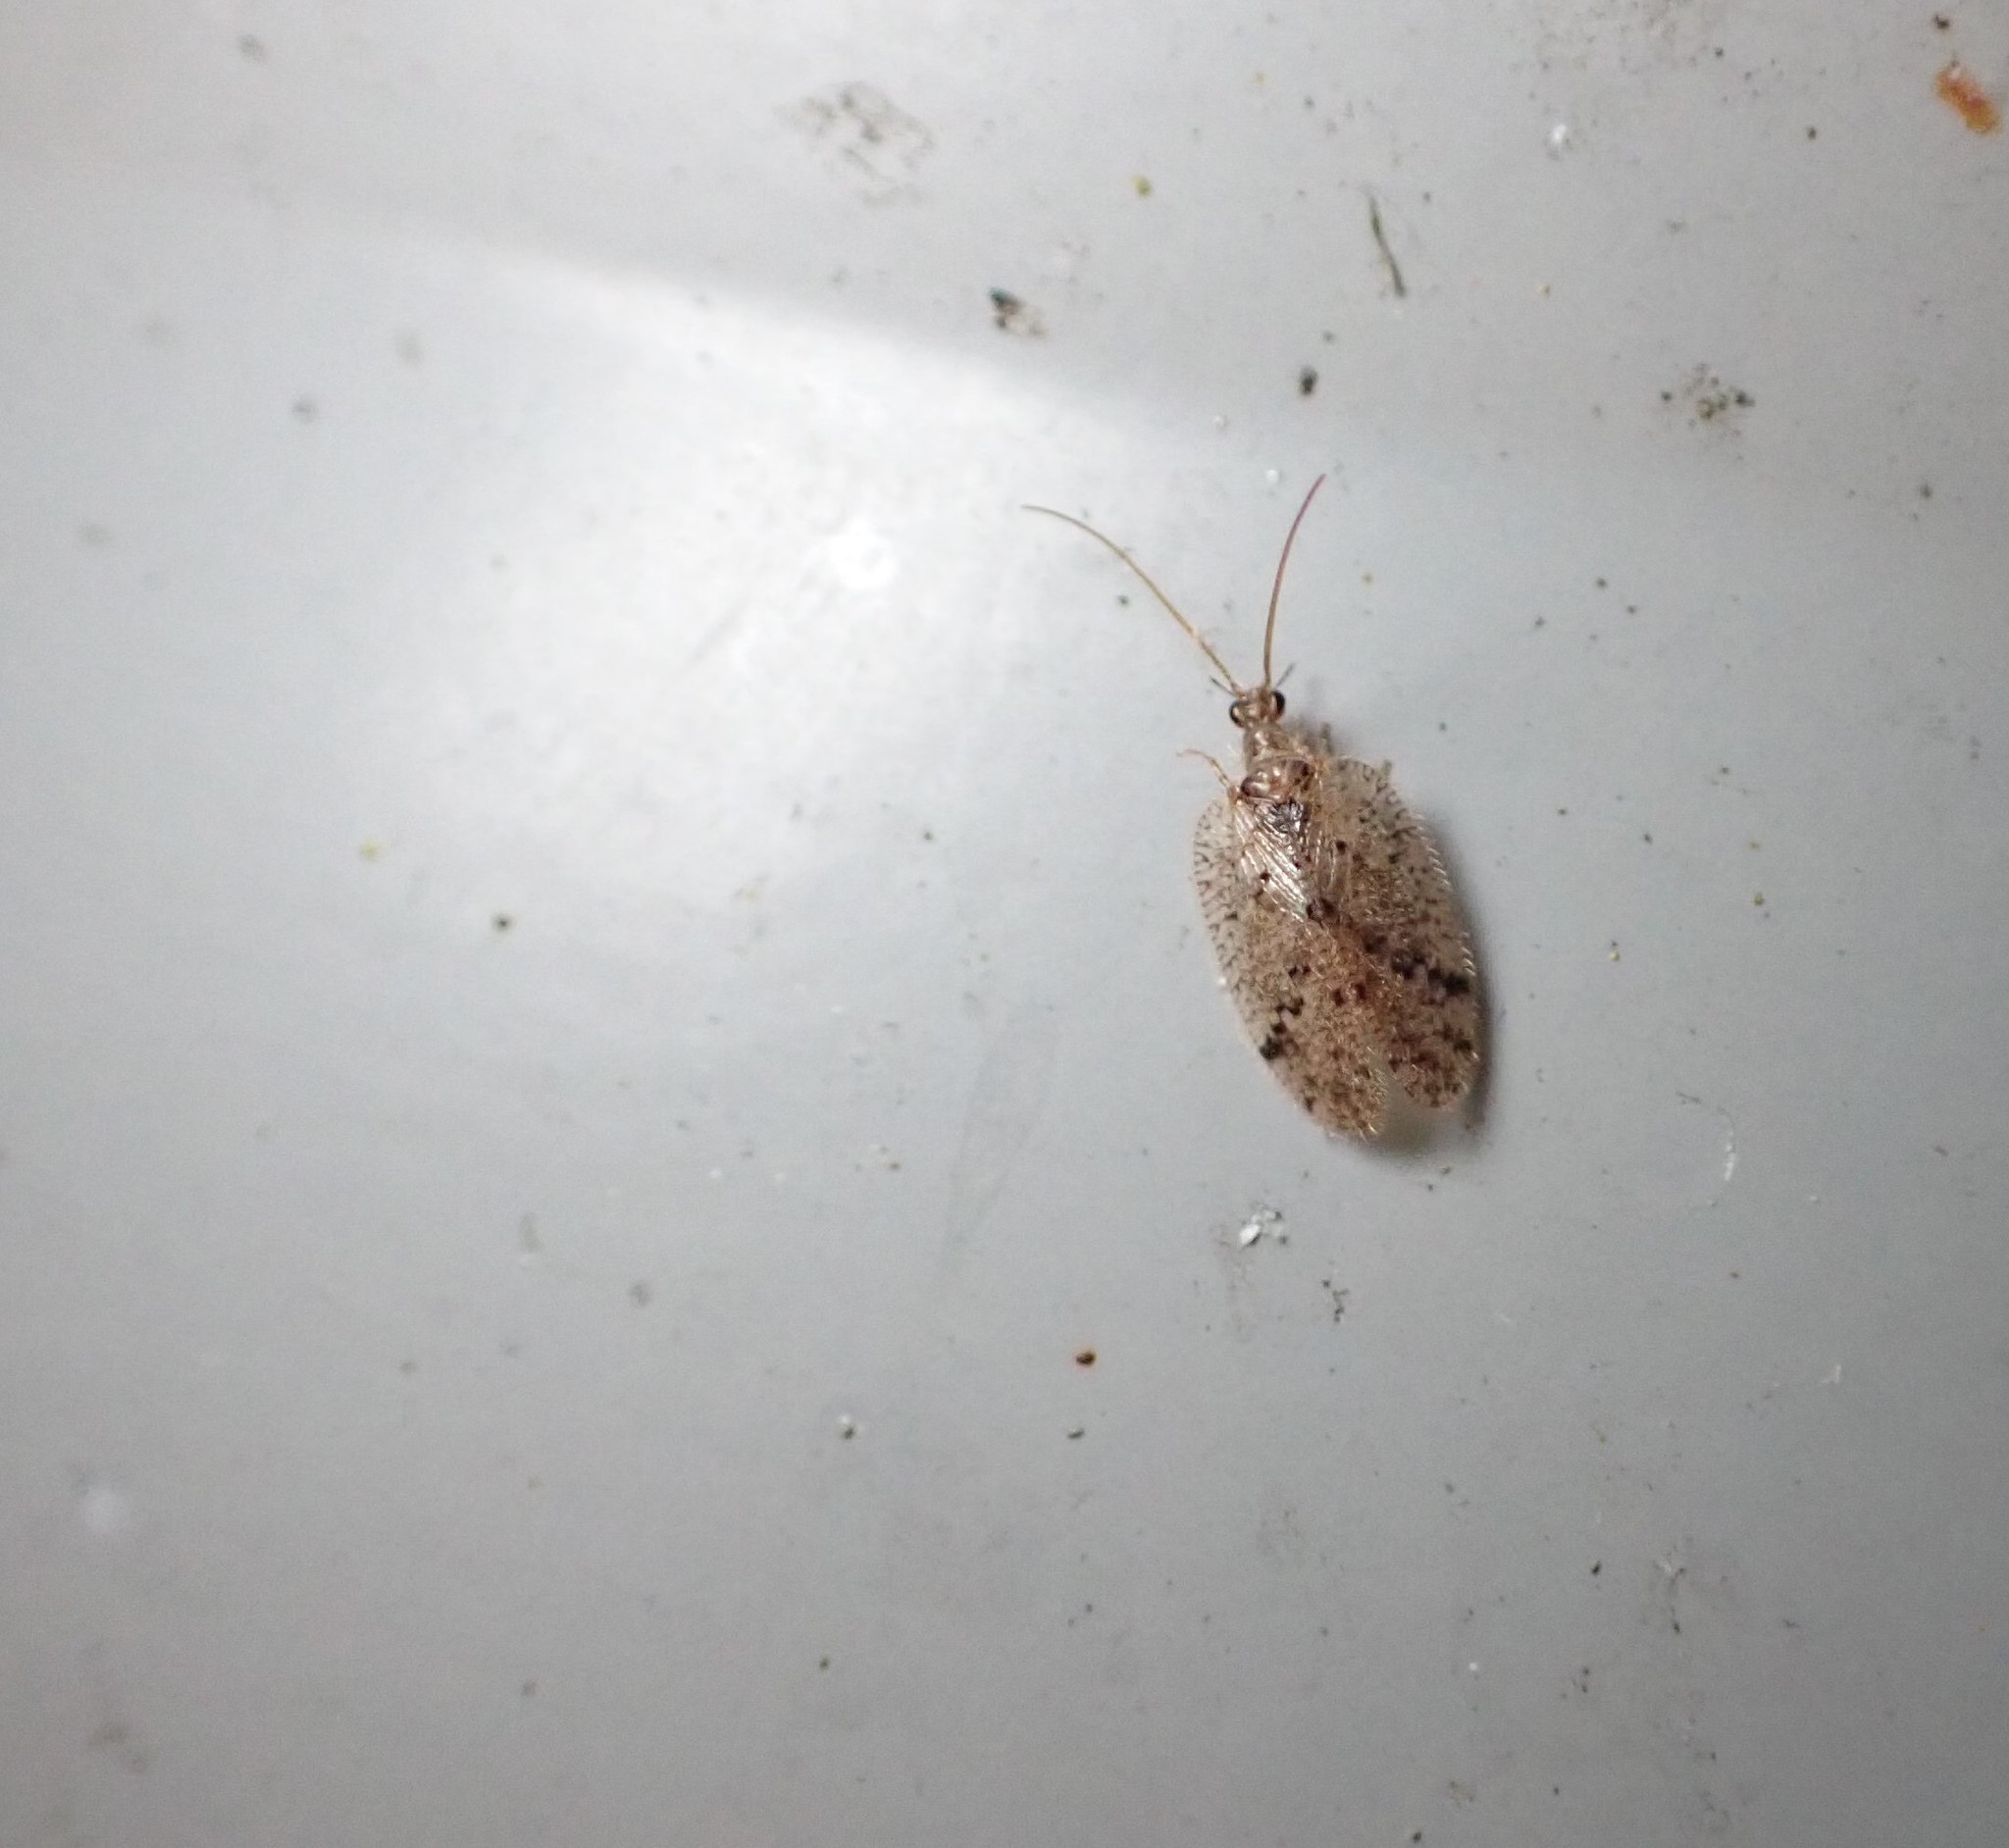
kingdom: Animalia
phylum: Arthropoda
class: Insecta
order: Neuroptera
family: Hemerobiidae
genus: Psectra
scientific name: Psectra nakaharai
